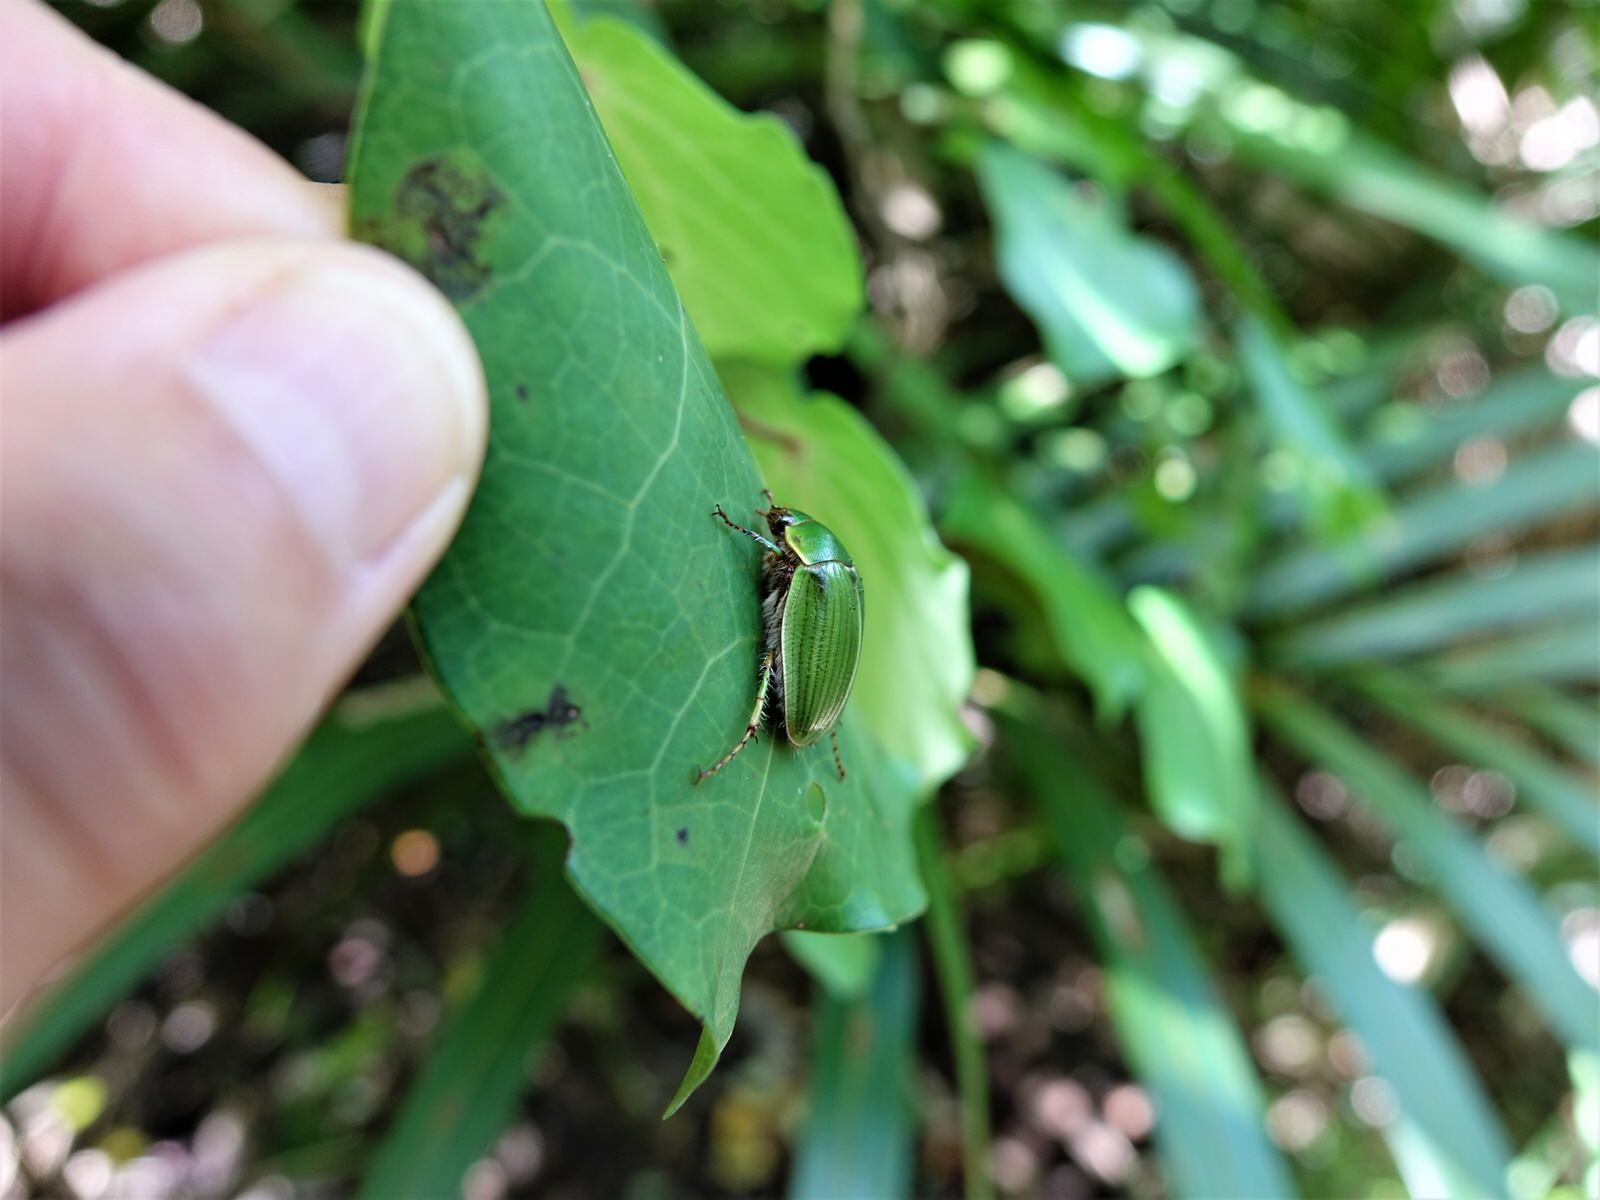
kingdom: Animalia
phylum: Arthropoda
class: Insecta
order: Coleoptera
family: Scarabaeidae
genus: Stethaspis
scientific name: Stethaspis longicornis
